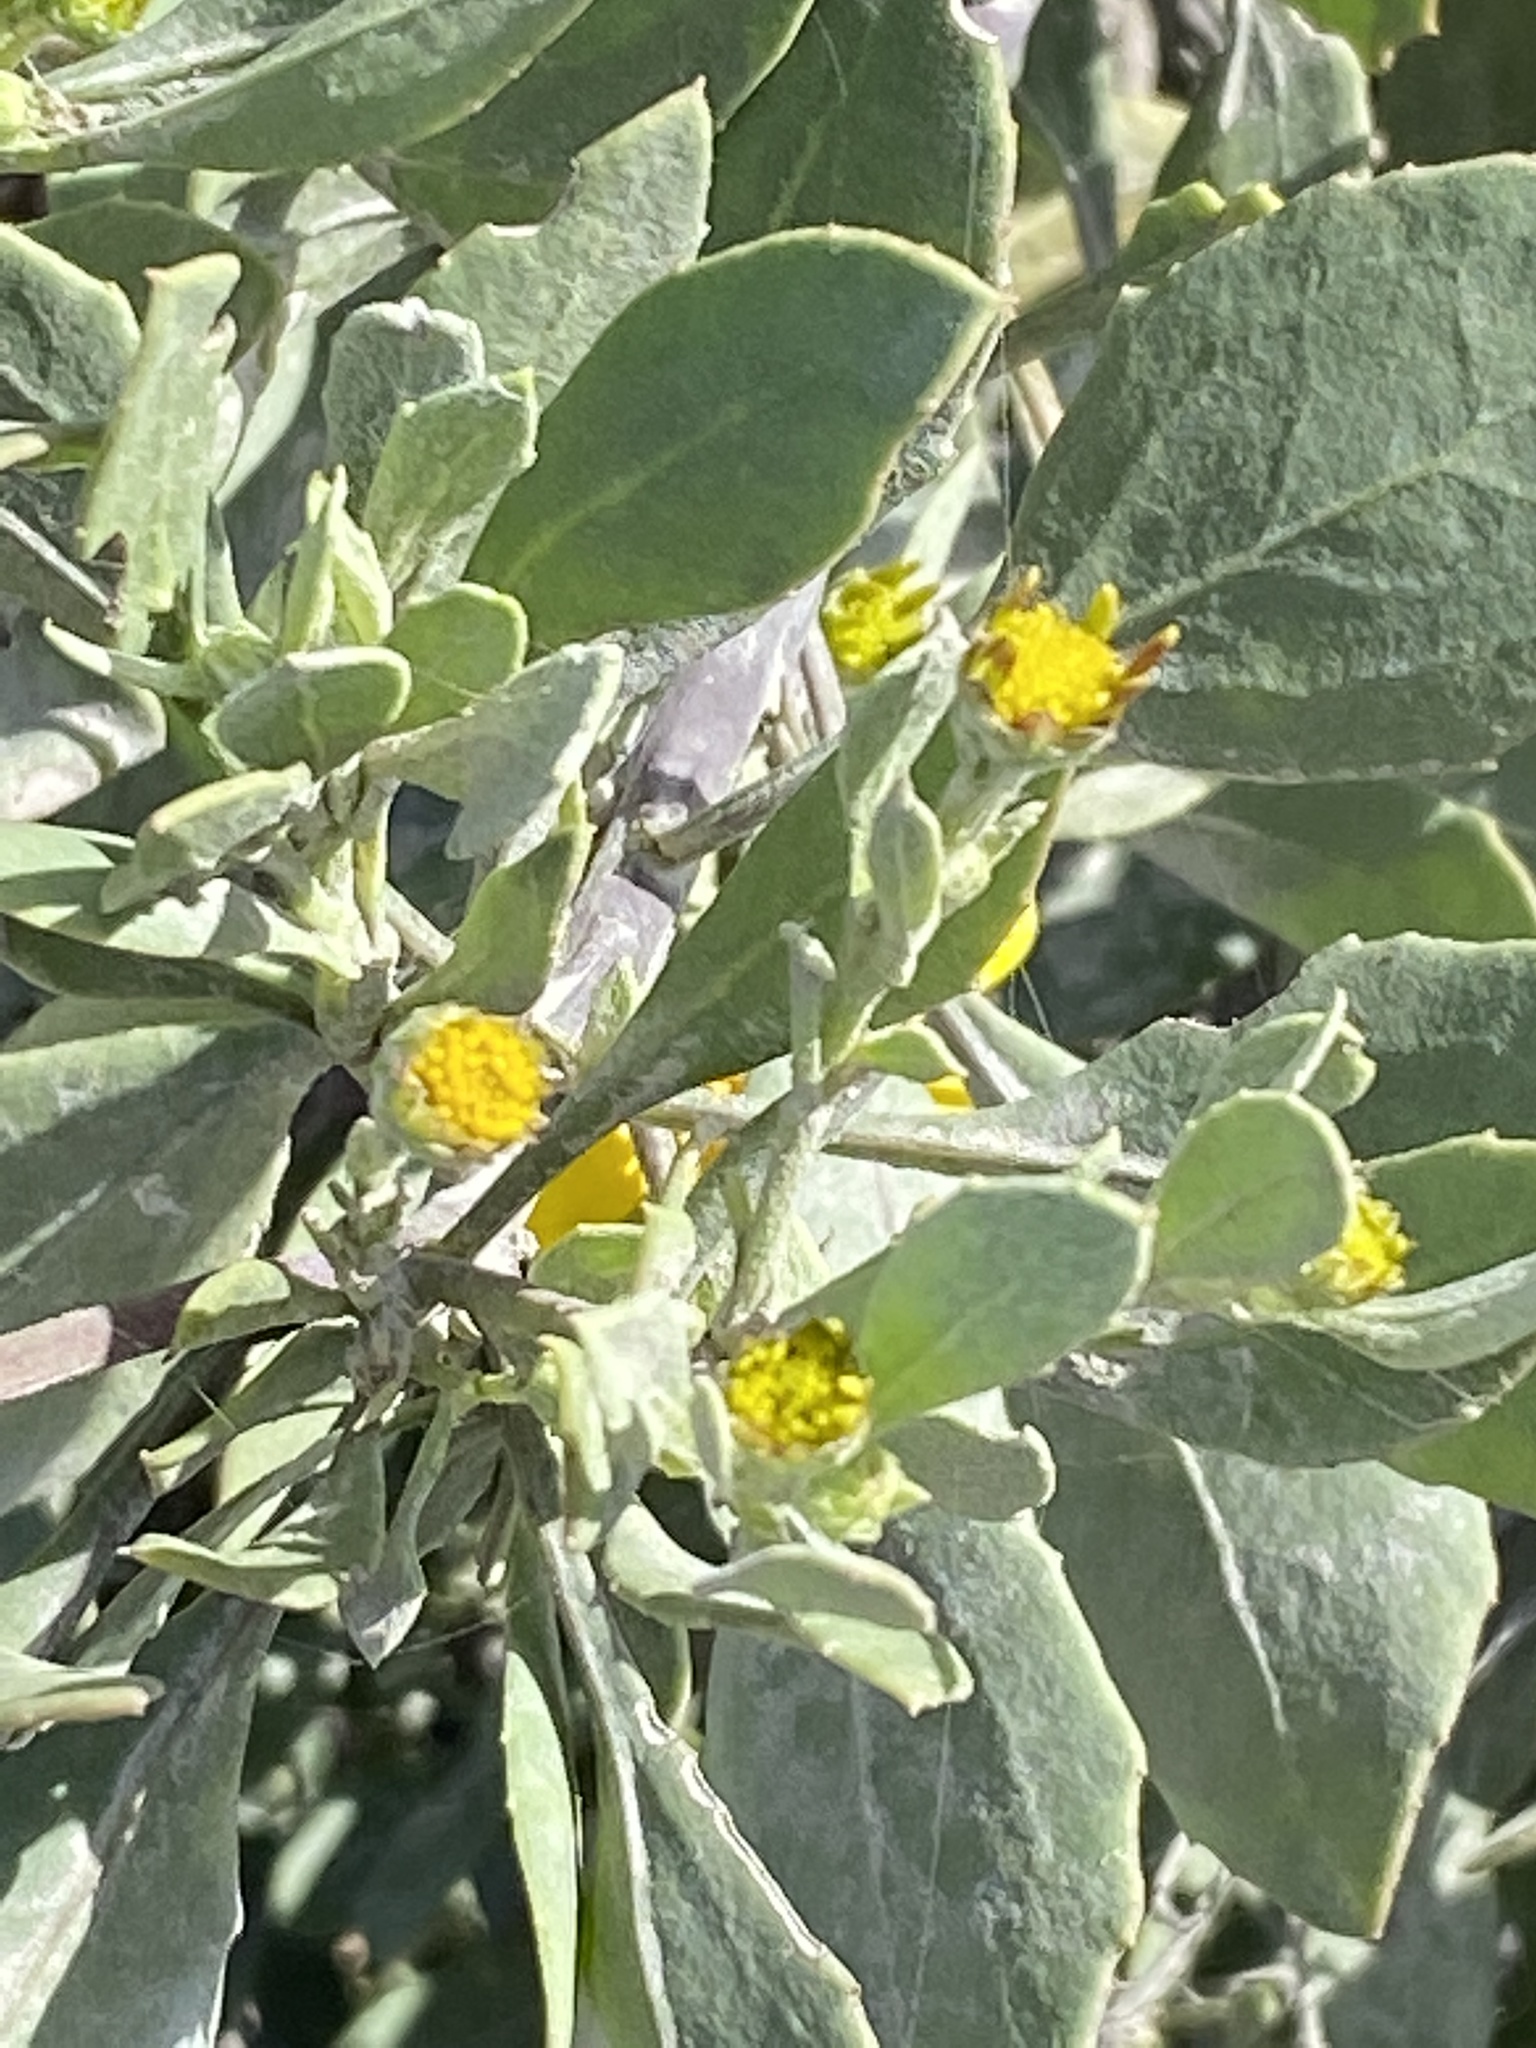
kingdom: Plantae
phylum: Tracheophyta
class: Magnoliopsida
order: Asterales
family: Asteraceae
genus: Osteospermum
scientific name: Osteospermum moniliferum
